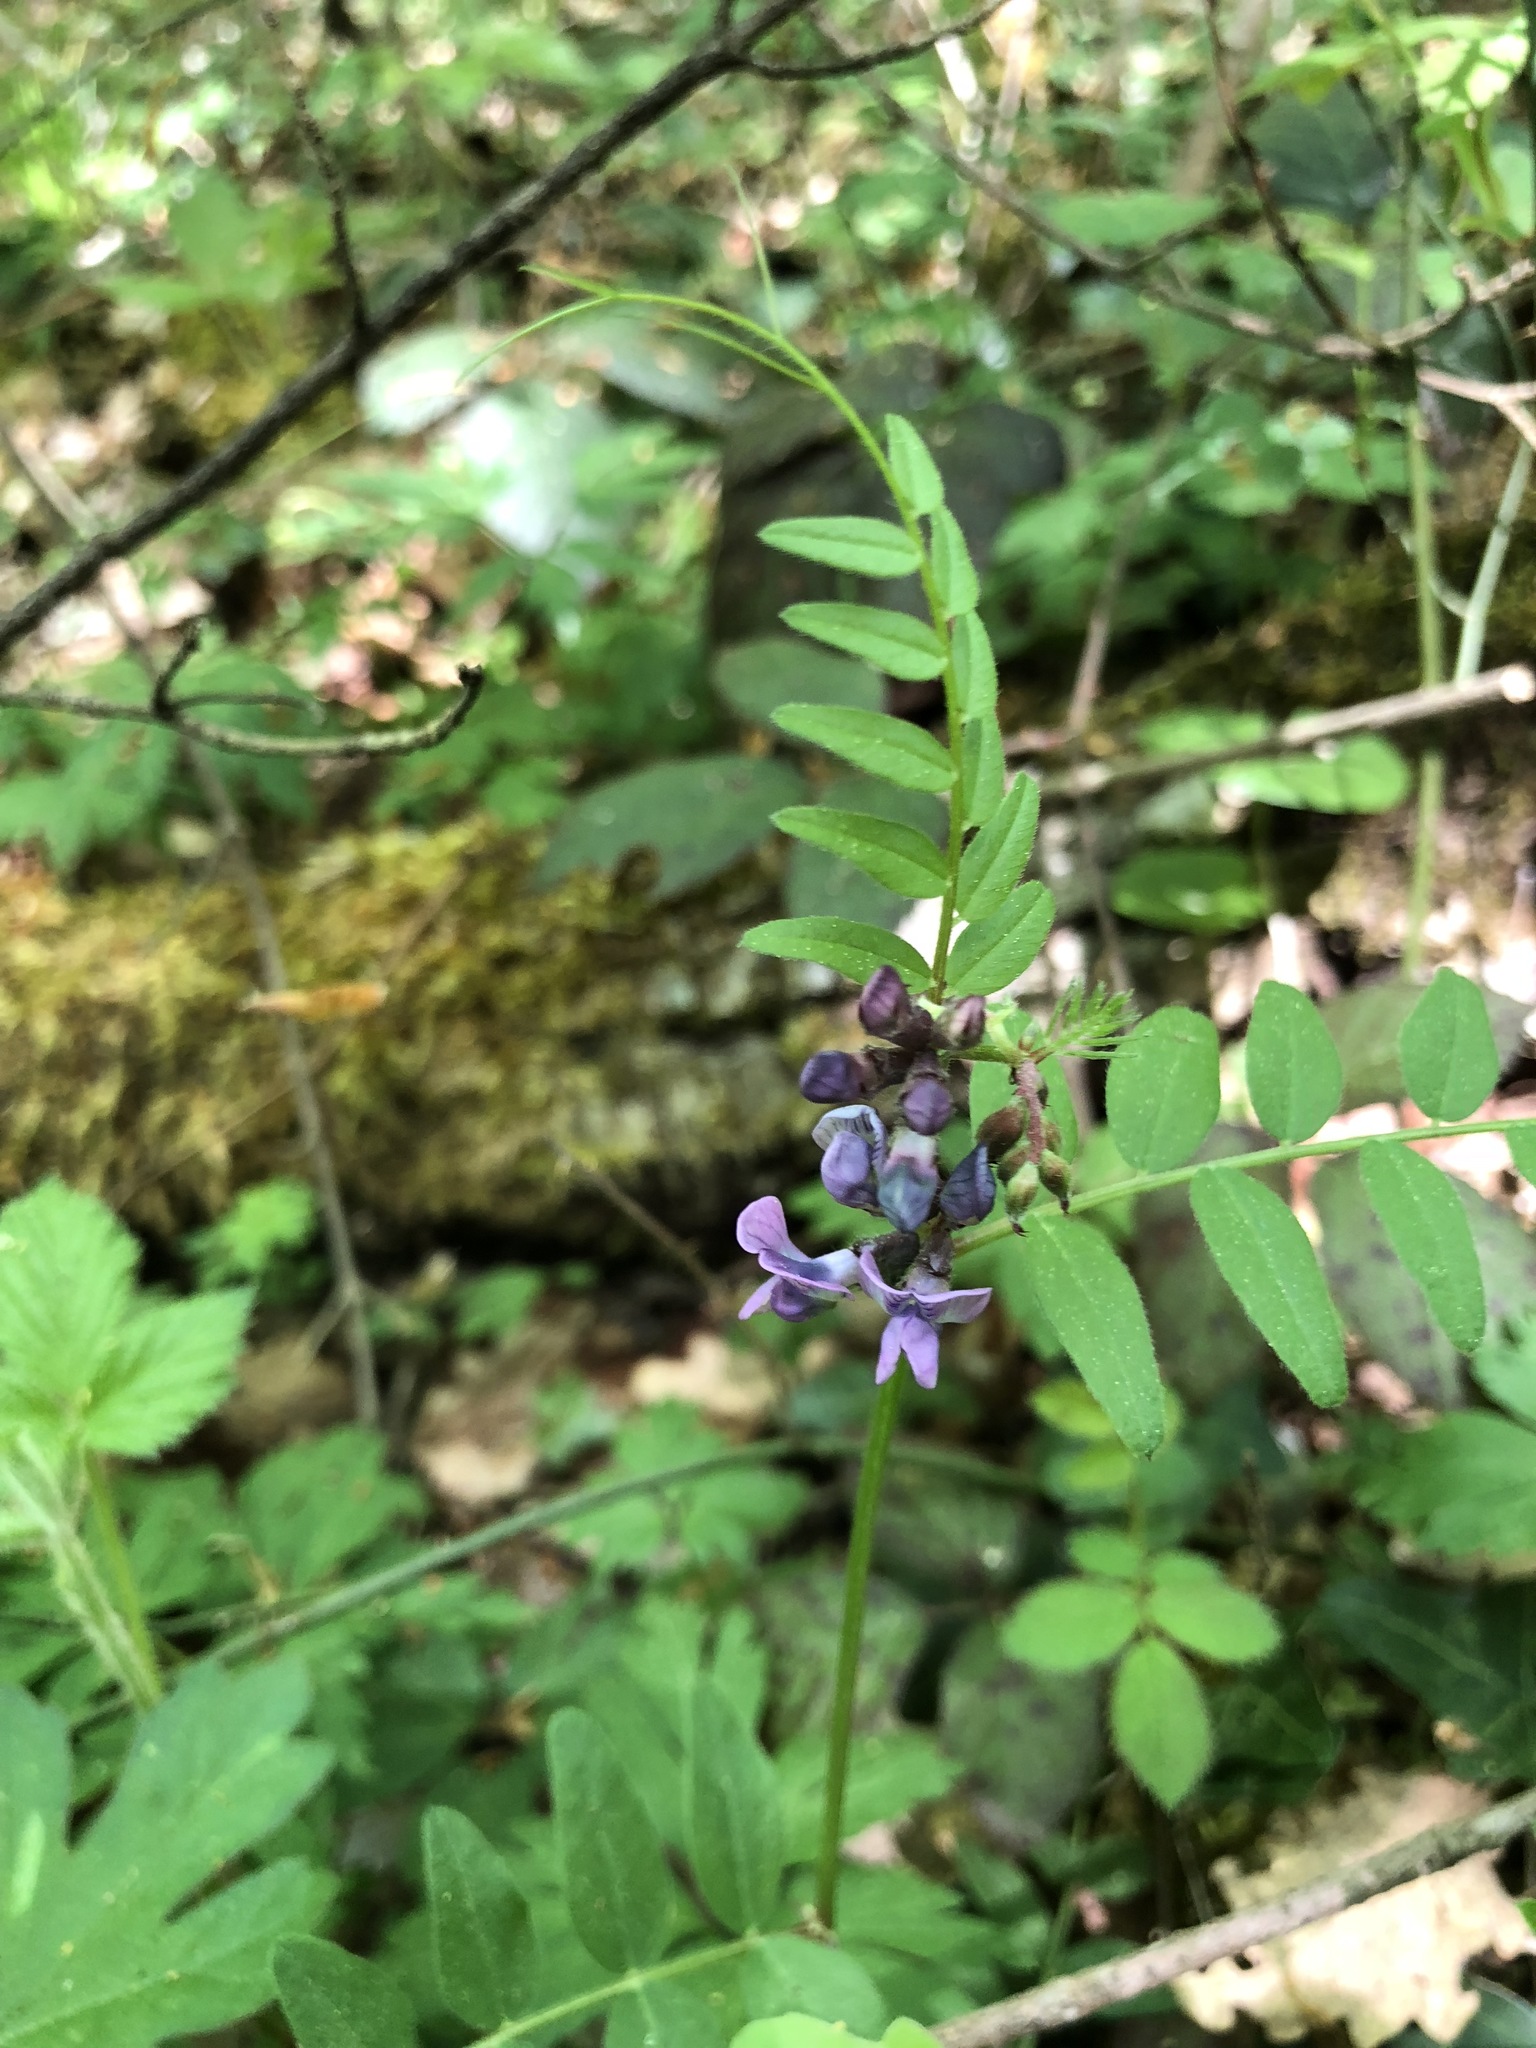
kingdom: Plantae
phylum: Tracheophyta
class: Magnoliopsida
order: Fabales
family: Fabaceae
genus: Vicia
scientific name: Vicia sepium
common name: Bush vetch
